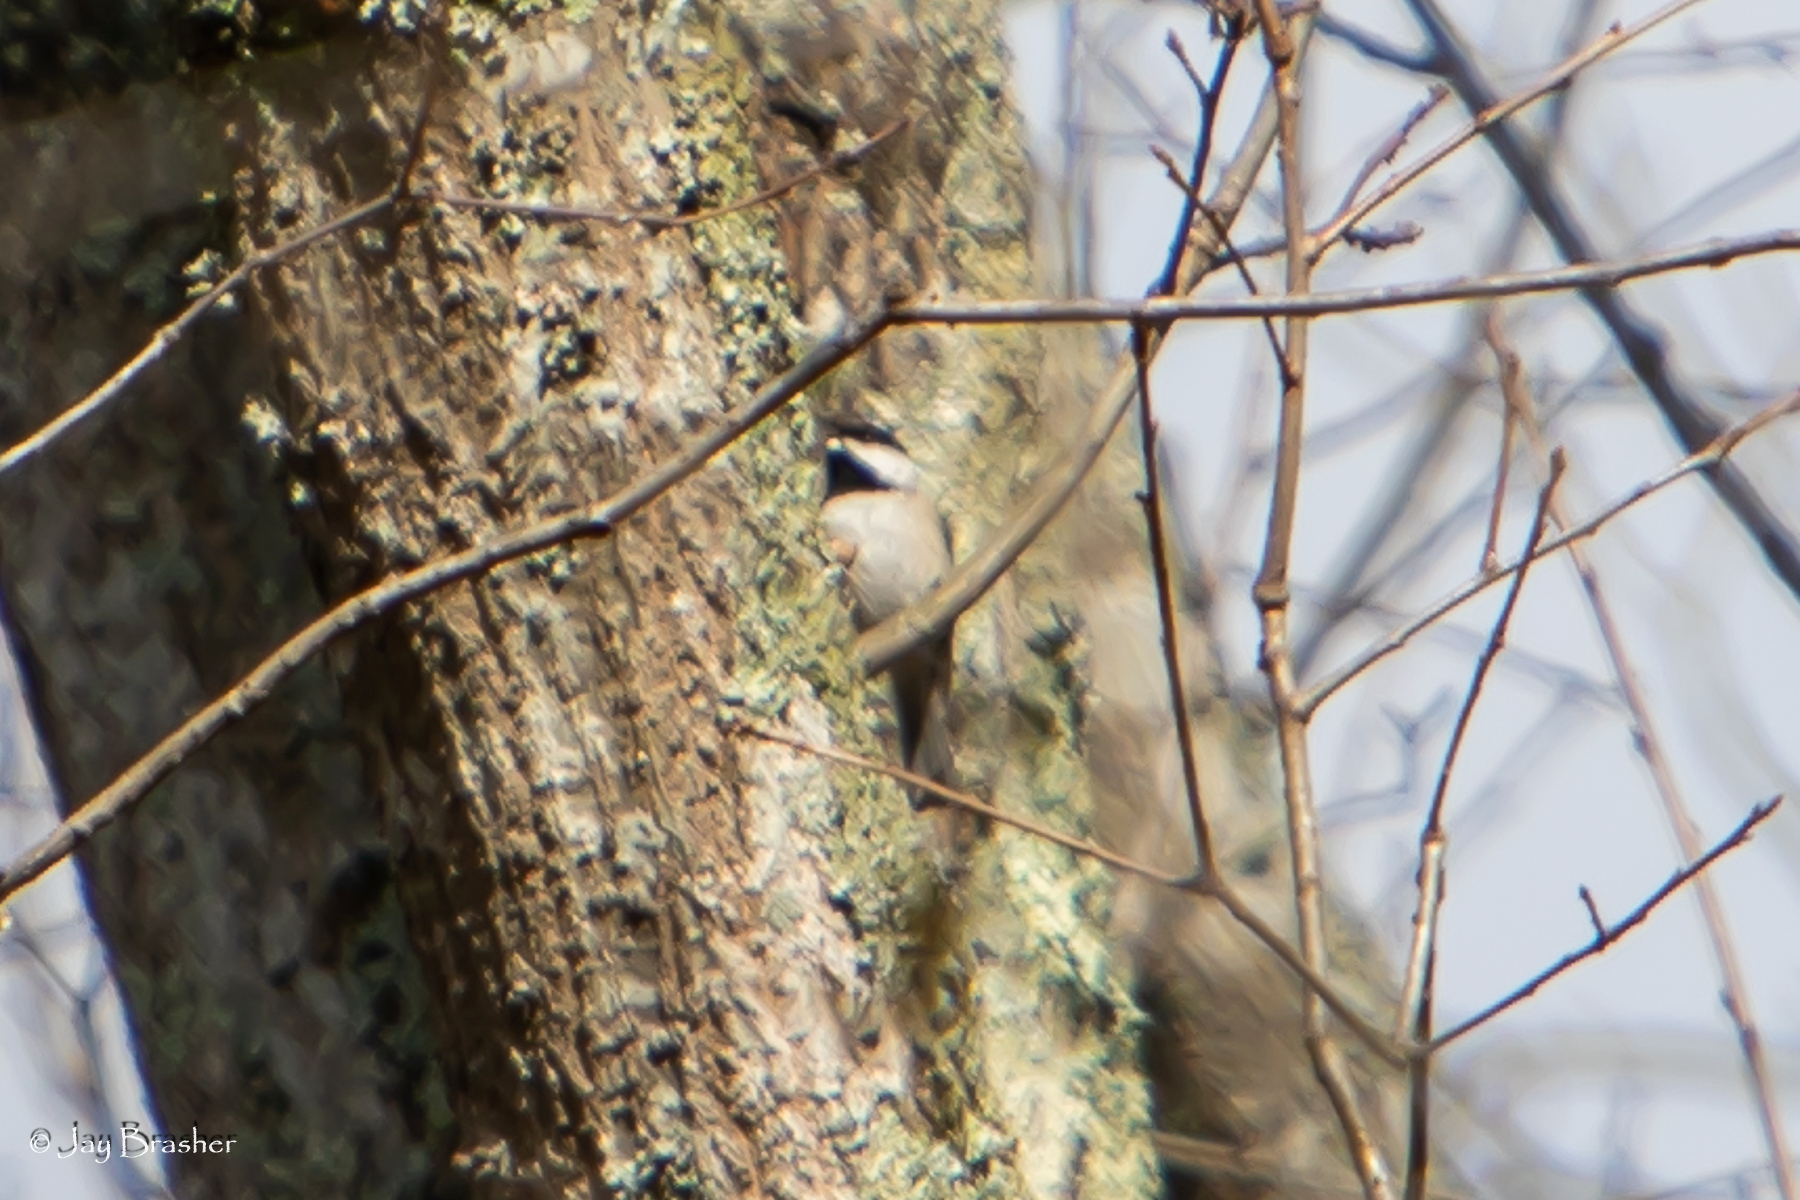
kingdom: Animalia
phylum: Chordata
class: Aves
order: Passeriformes
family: Paridae
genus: Poecile
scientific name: Poecile carolinensis
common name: Carolina chickadee
